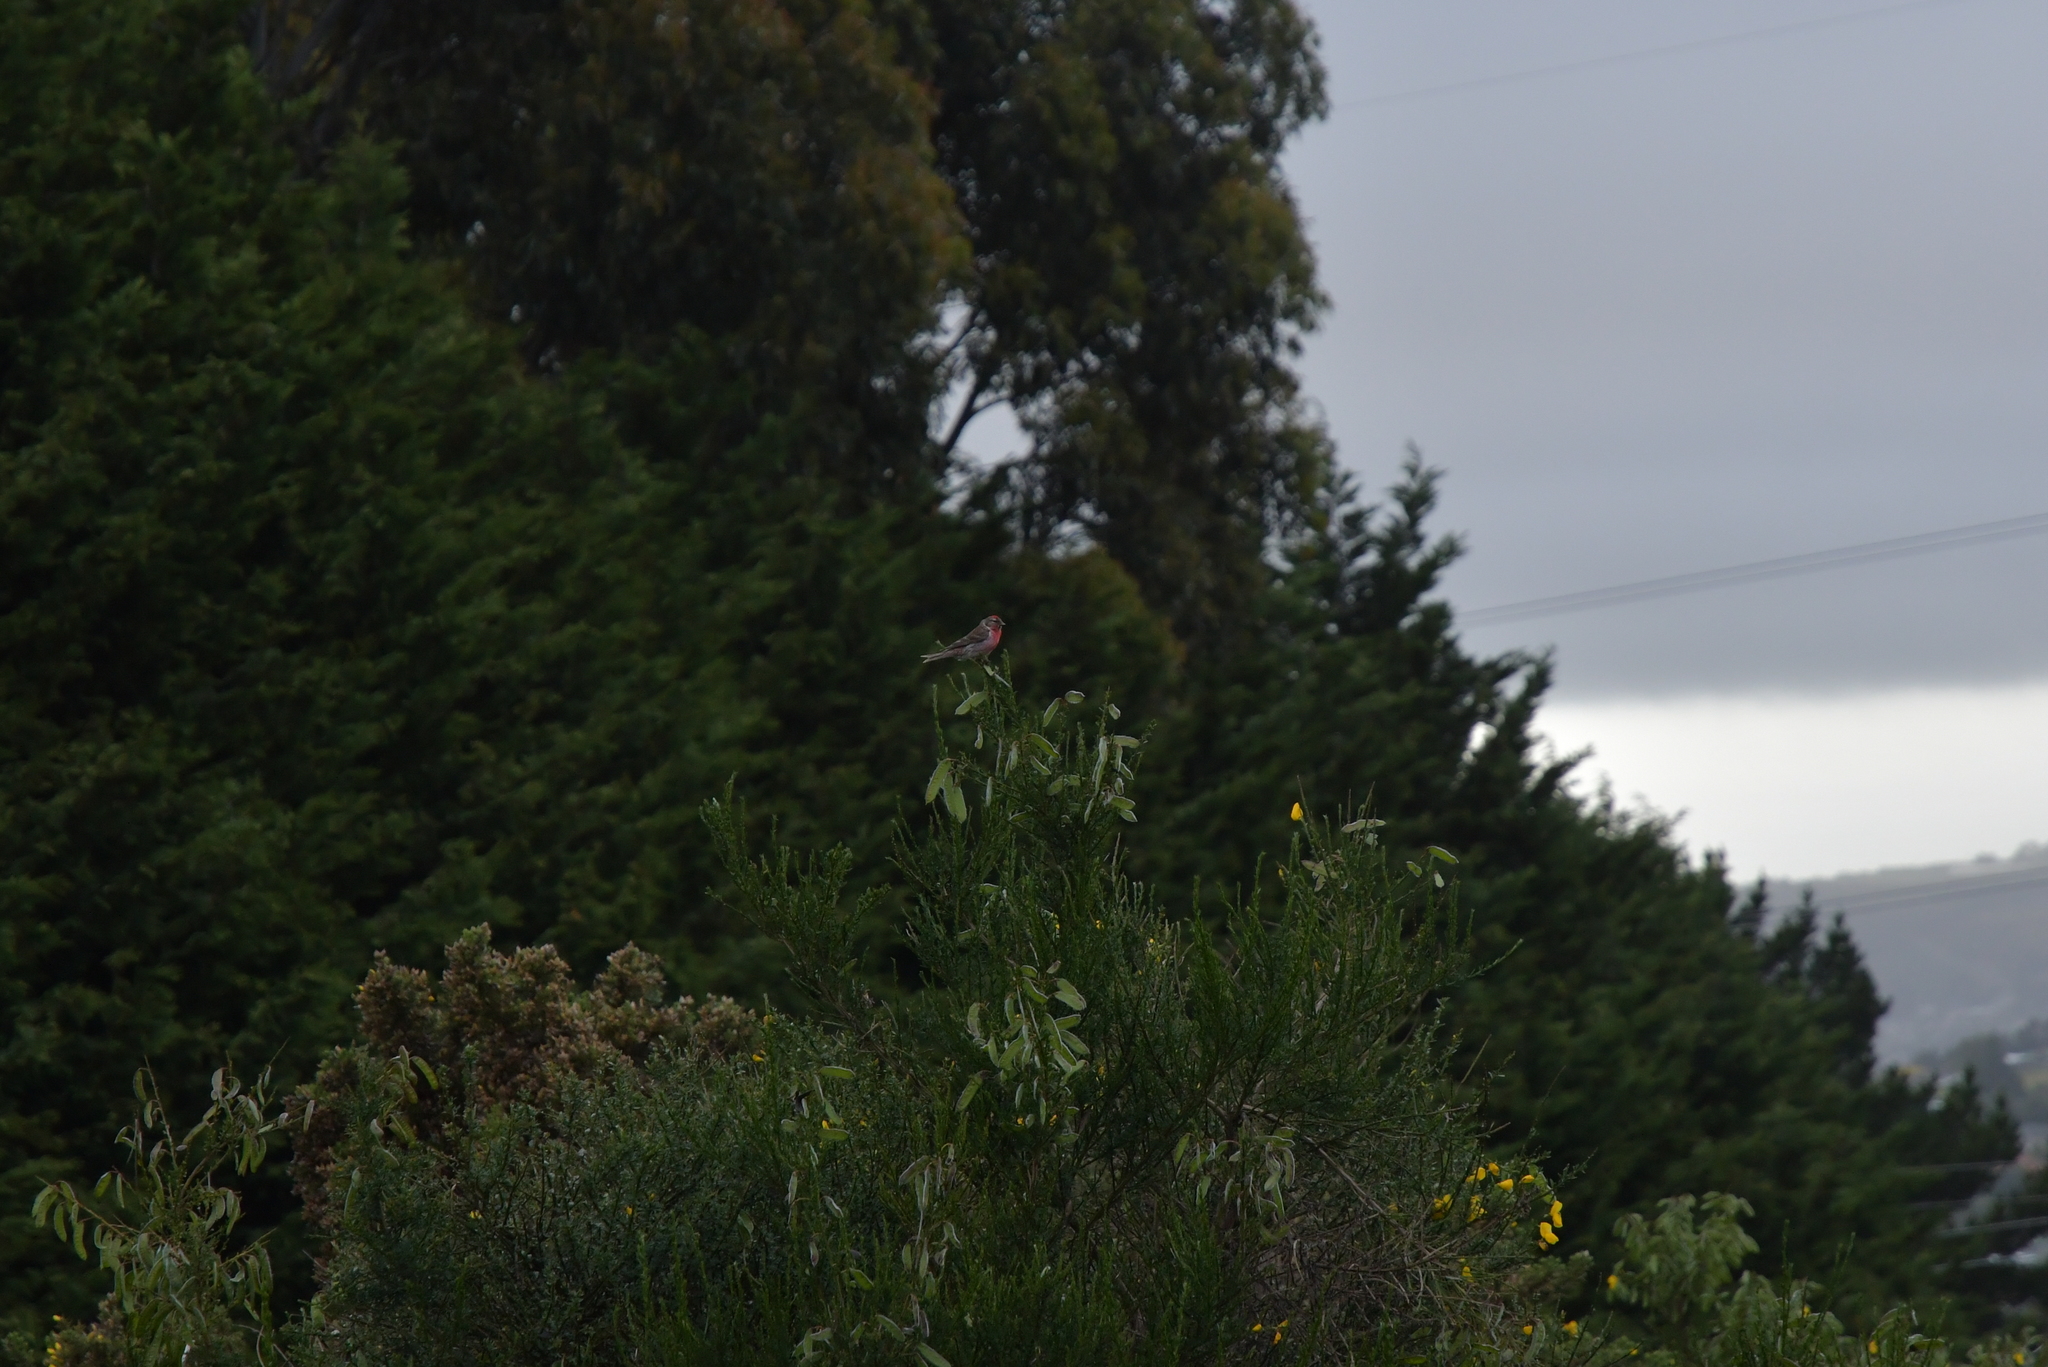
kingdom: Animalia
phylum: Chordata
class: Aves
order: Passeriformes
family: Fringillidae
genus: Acanthis
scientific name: Acanthis flammea
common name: Common redpoll
